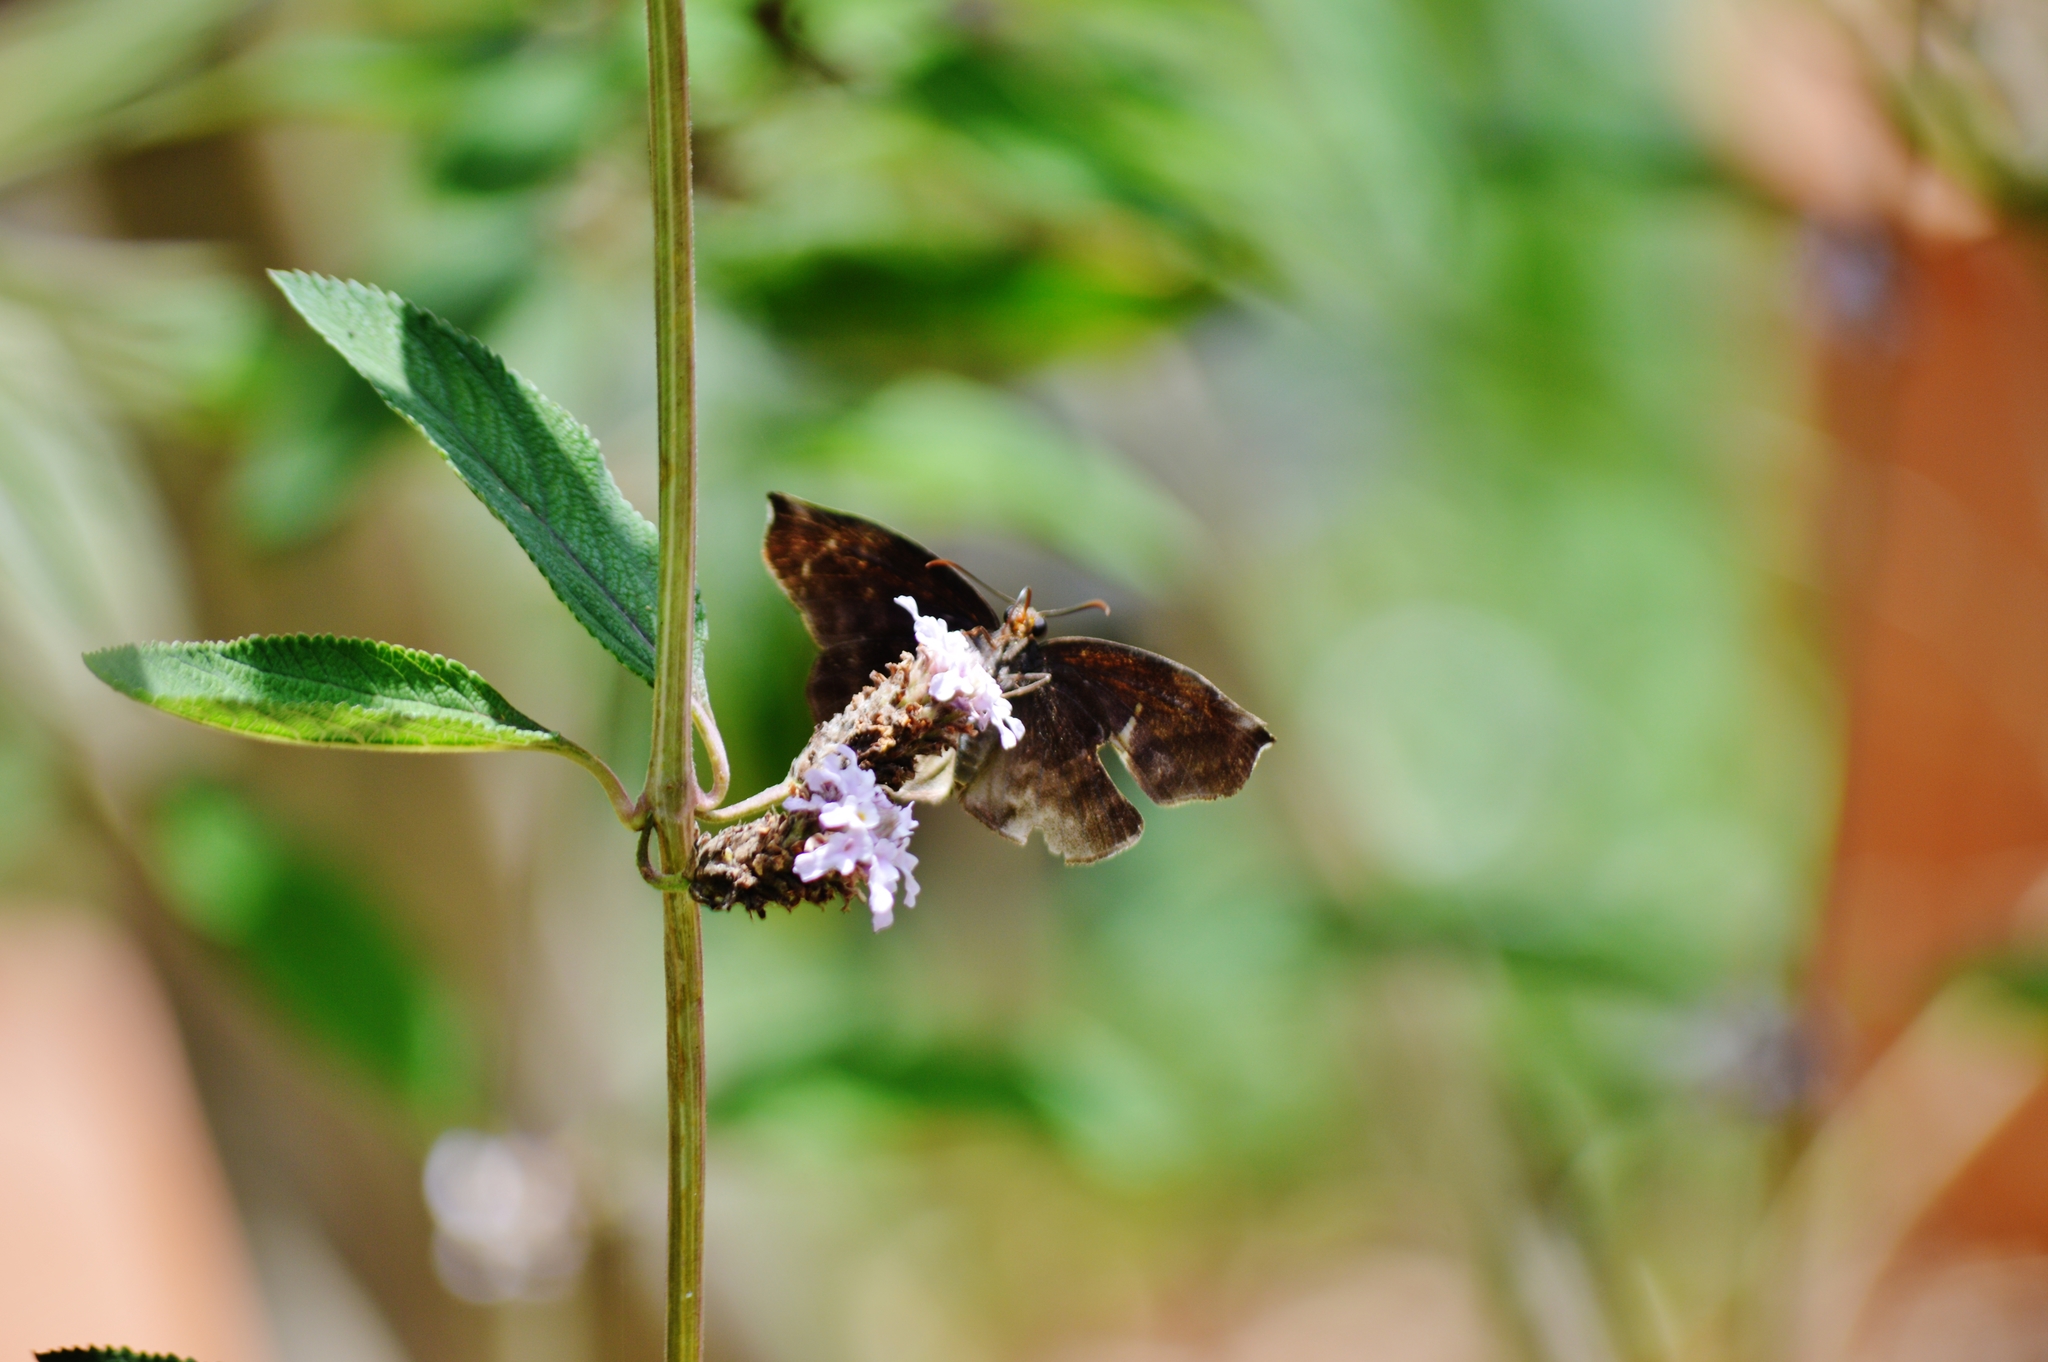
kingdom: Animalia
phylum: Arthropoda
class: Insecta
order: Lepidoptera
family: Hesperiidae
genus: Achlyodes
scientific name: Achlyodes thraso
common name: Sickle-winged skipper
